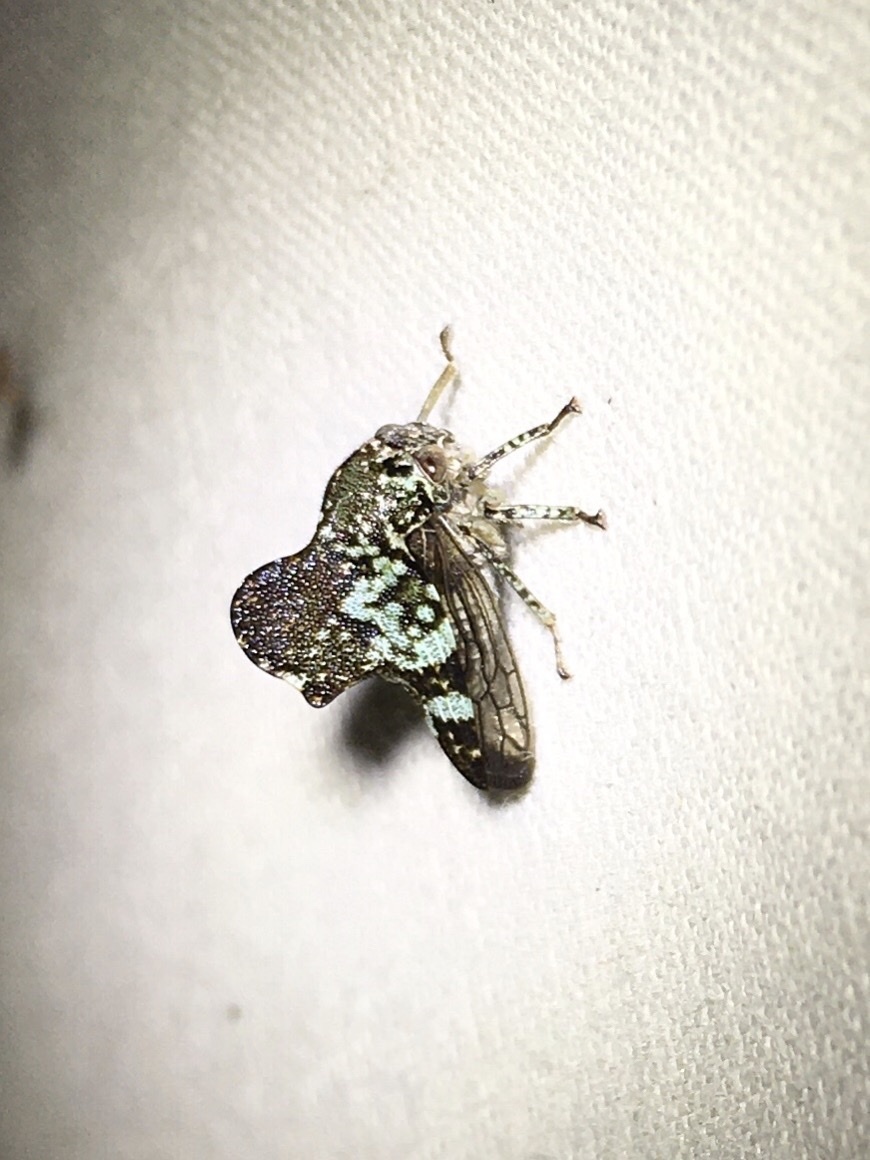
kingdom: Animalia
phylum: Arthropoda
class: Insecta
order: Hemiptera
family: Membracidae
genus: Telamona
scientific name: Telamona concava
